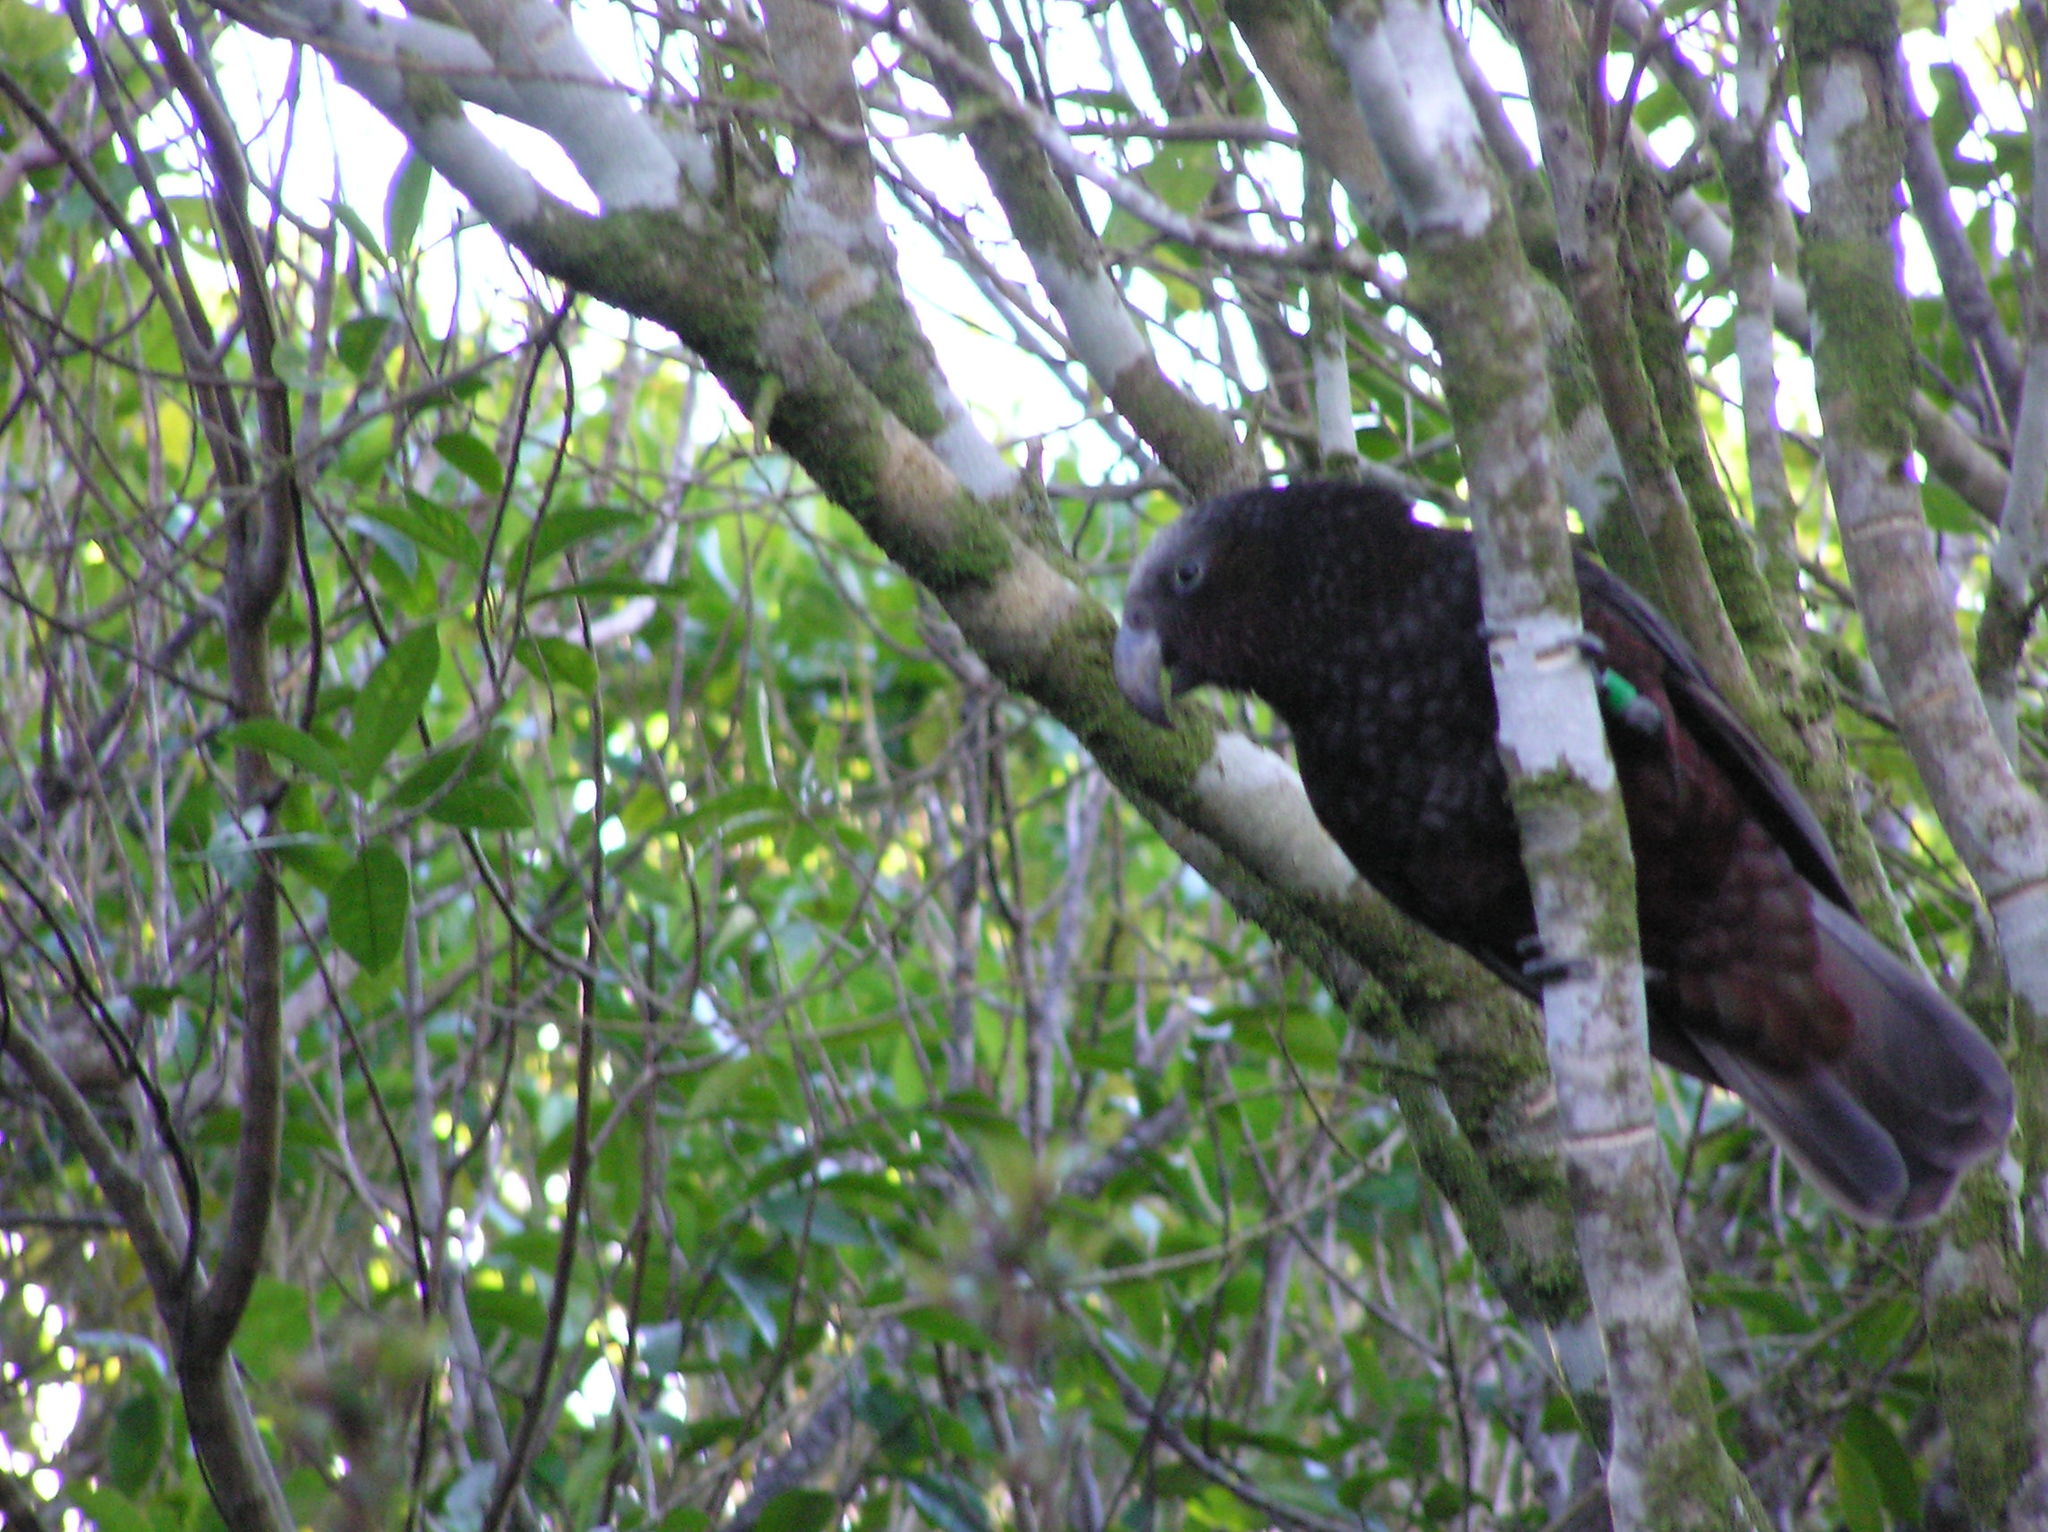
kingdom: Animalia
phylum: Chordata
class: Aves
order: Psittaciformes
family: Psittacidae
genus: Nestor
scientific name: Nestor meridionalis
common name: New zealand kaka
